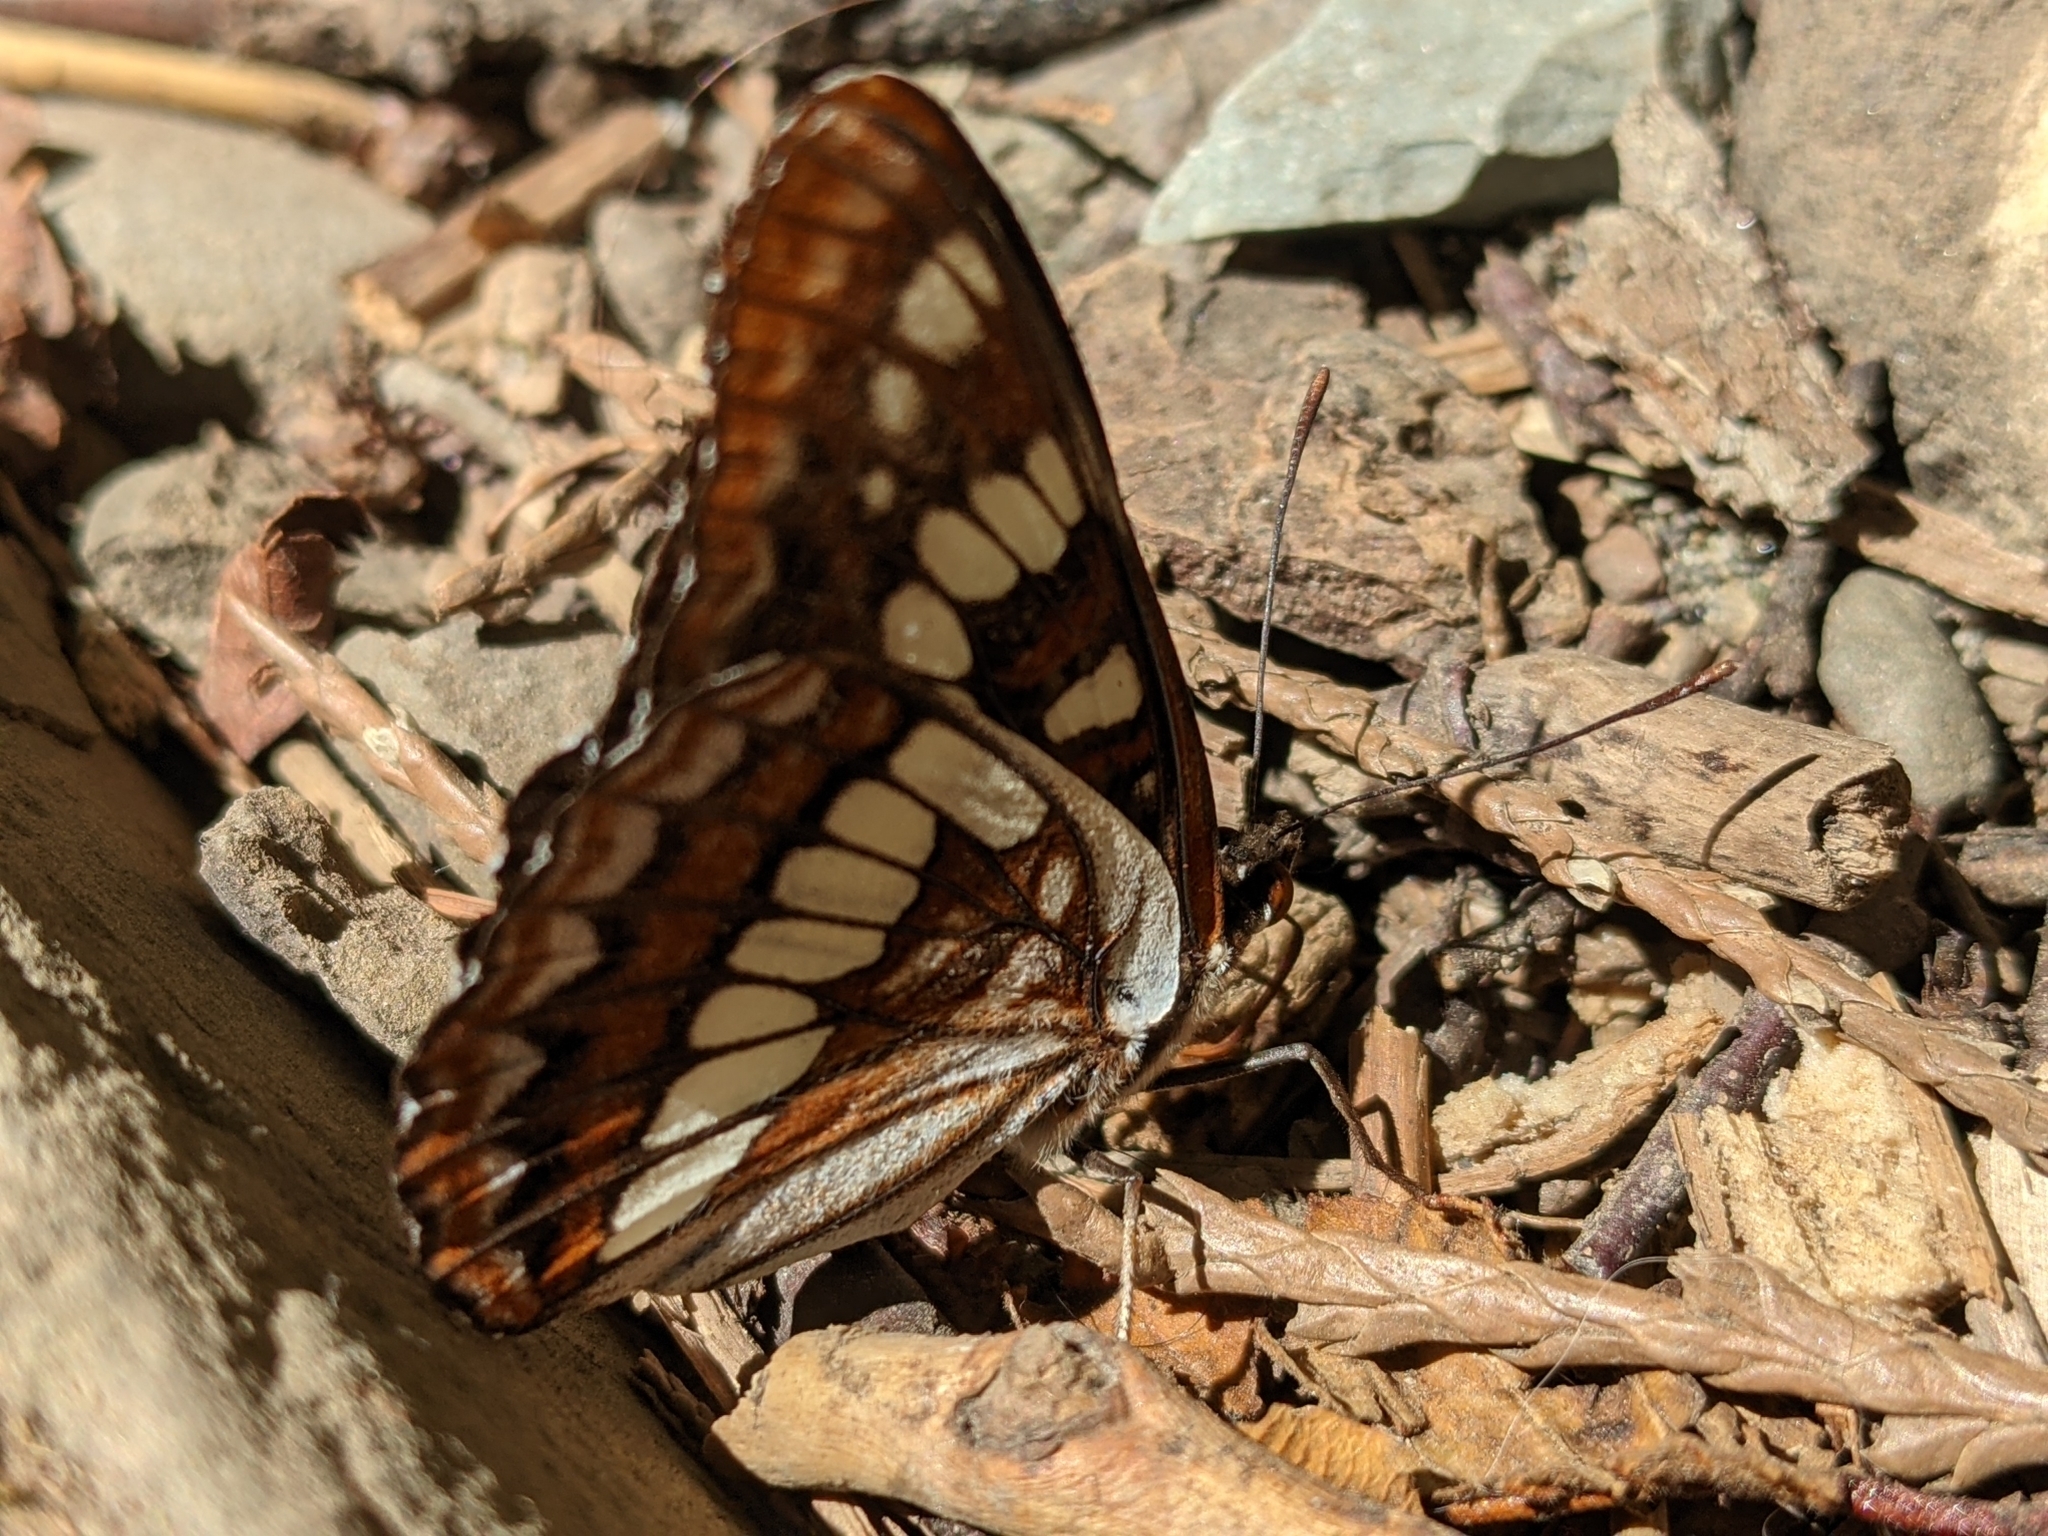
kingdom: Animalia
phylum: Arthropoda
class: Insecta
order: Lepidoptera
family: Nymphalidae
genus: Limenitis
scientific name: Limenitis lorquini
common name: Lorquin's admiral
